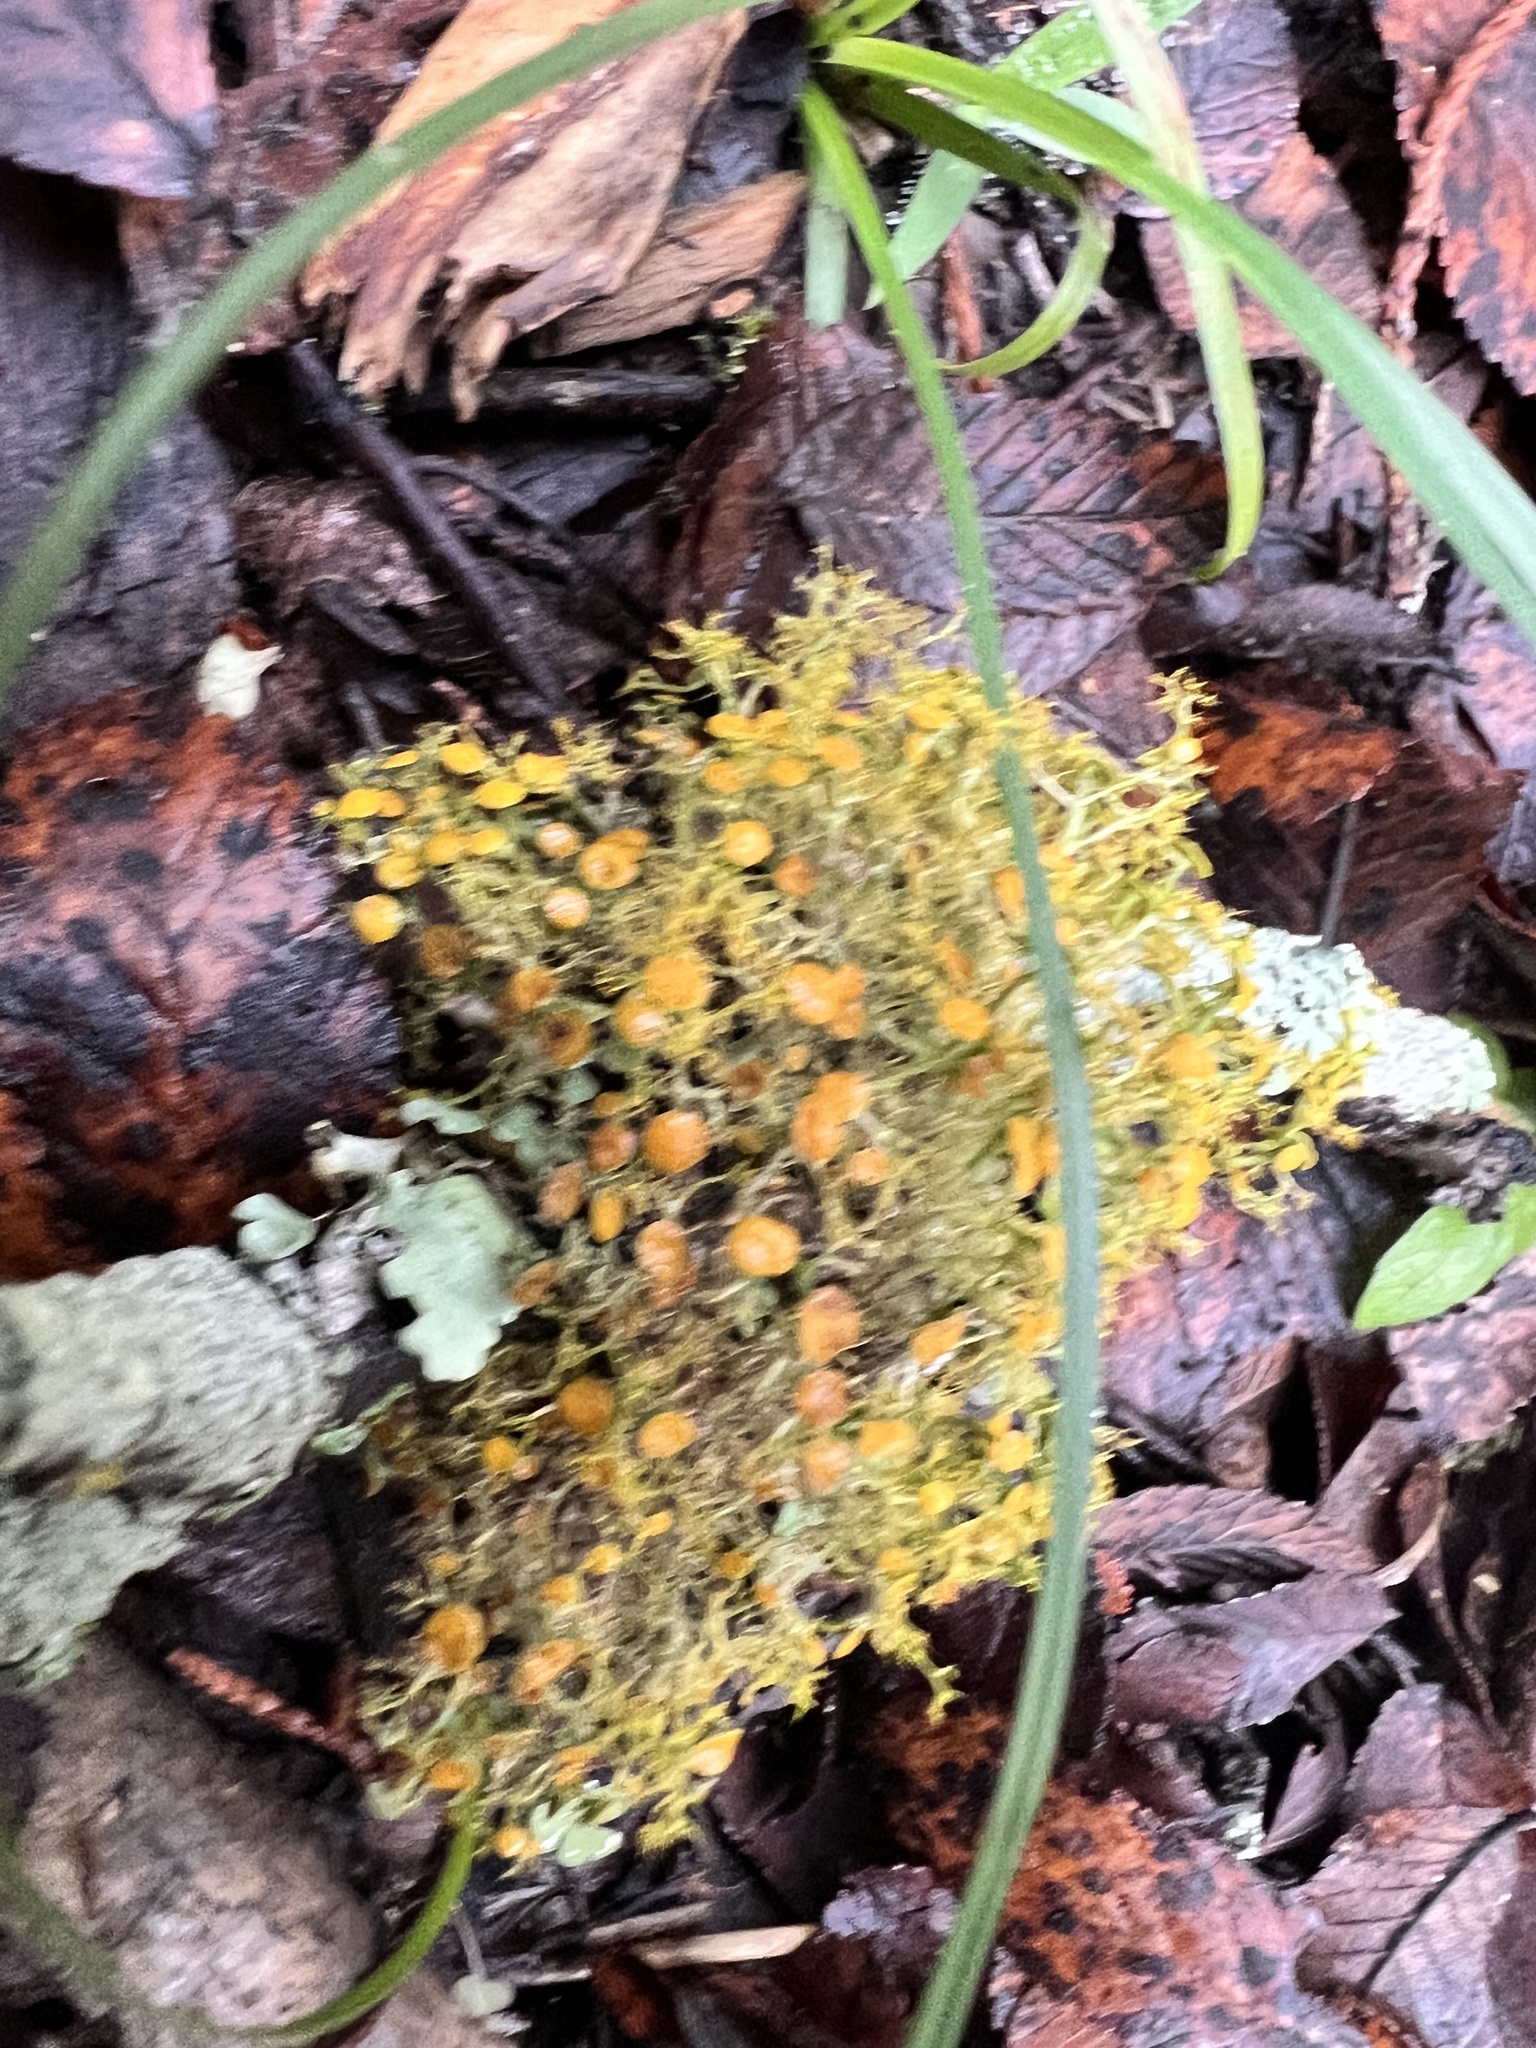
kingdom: Fungi
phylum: Ascomycota
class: Lecanoromycetes
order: Teloschistales
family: Teloschistaceae
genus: Teloschistes
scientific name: Teloschistes exilis
